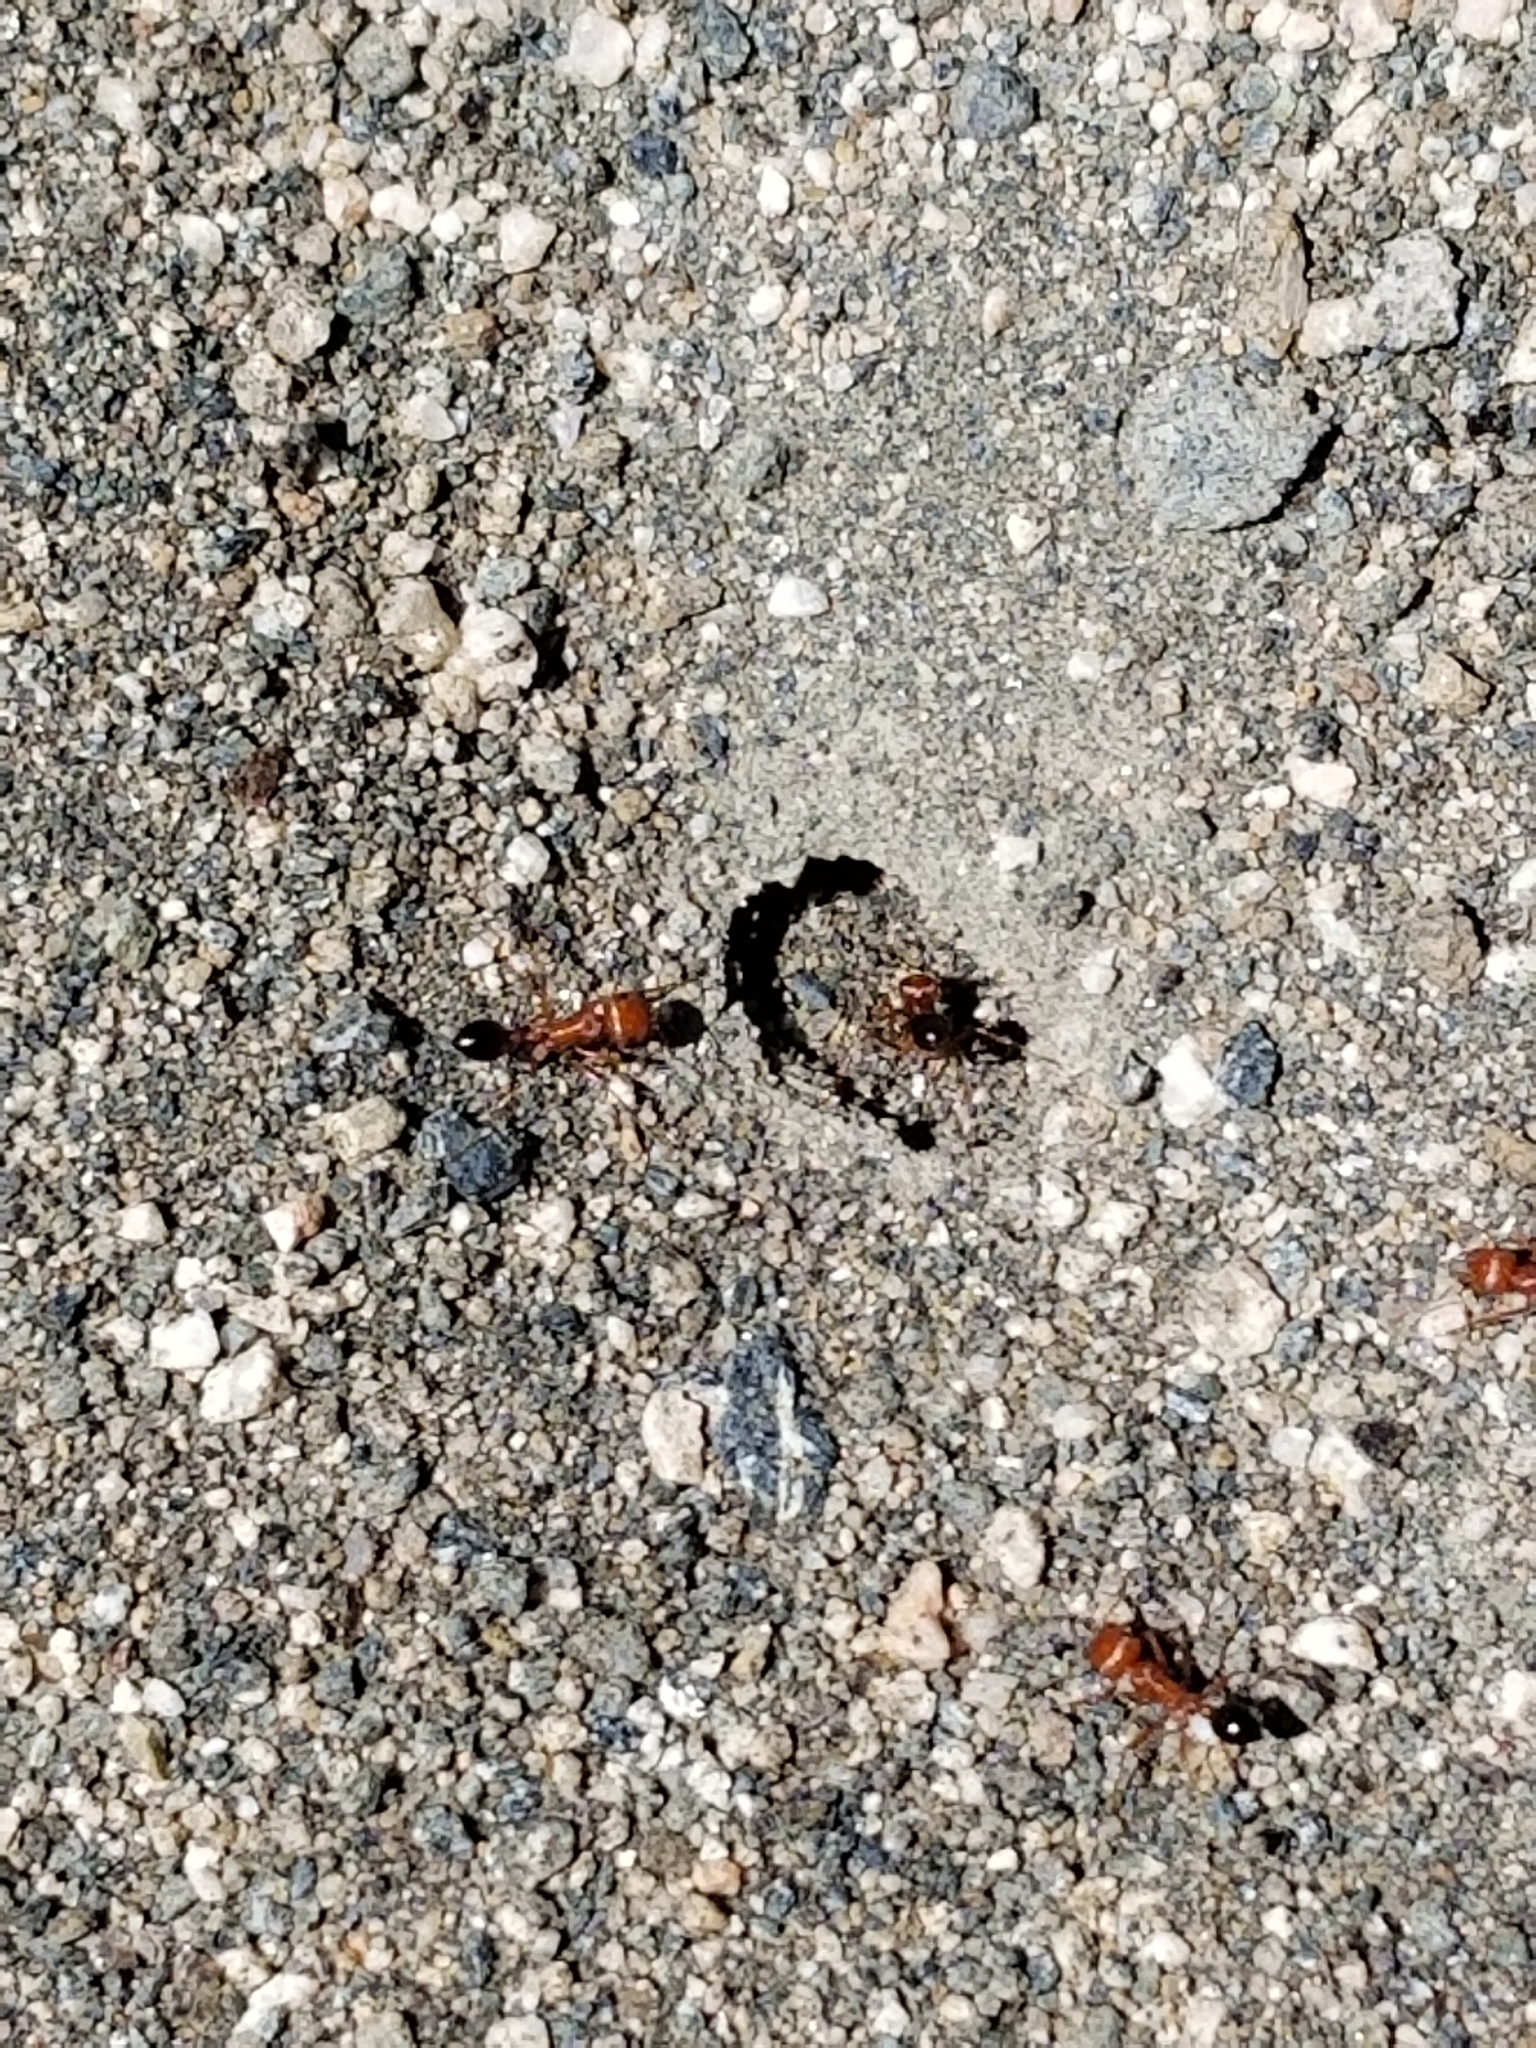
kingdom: Animalia
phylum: Arthropoda
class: Insecta
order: Hymenoptera
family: Formicidae
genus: Pogonomyrmex
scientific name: Pogonomyrmex californicus
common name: California harvester ant
